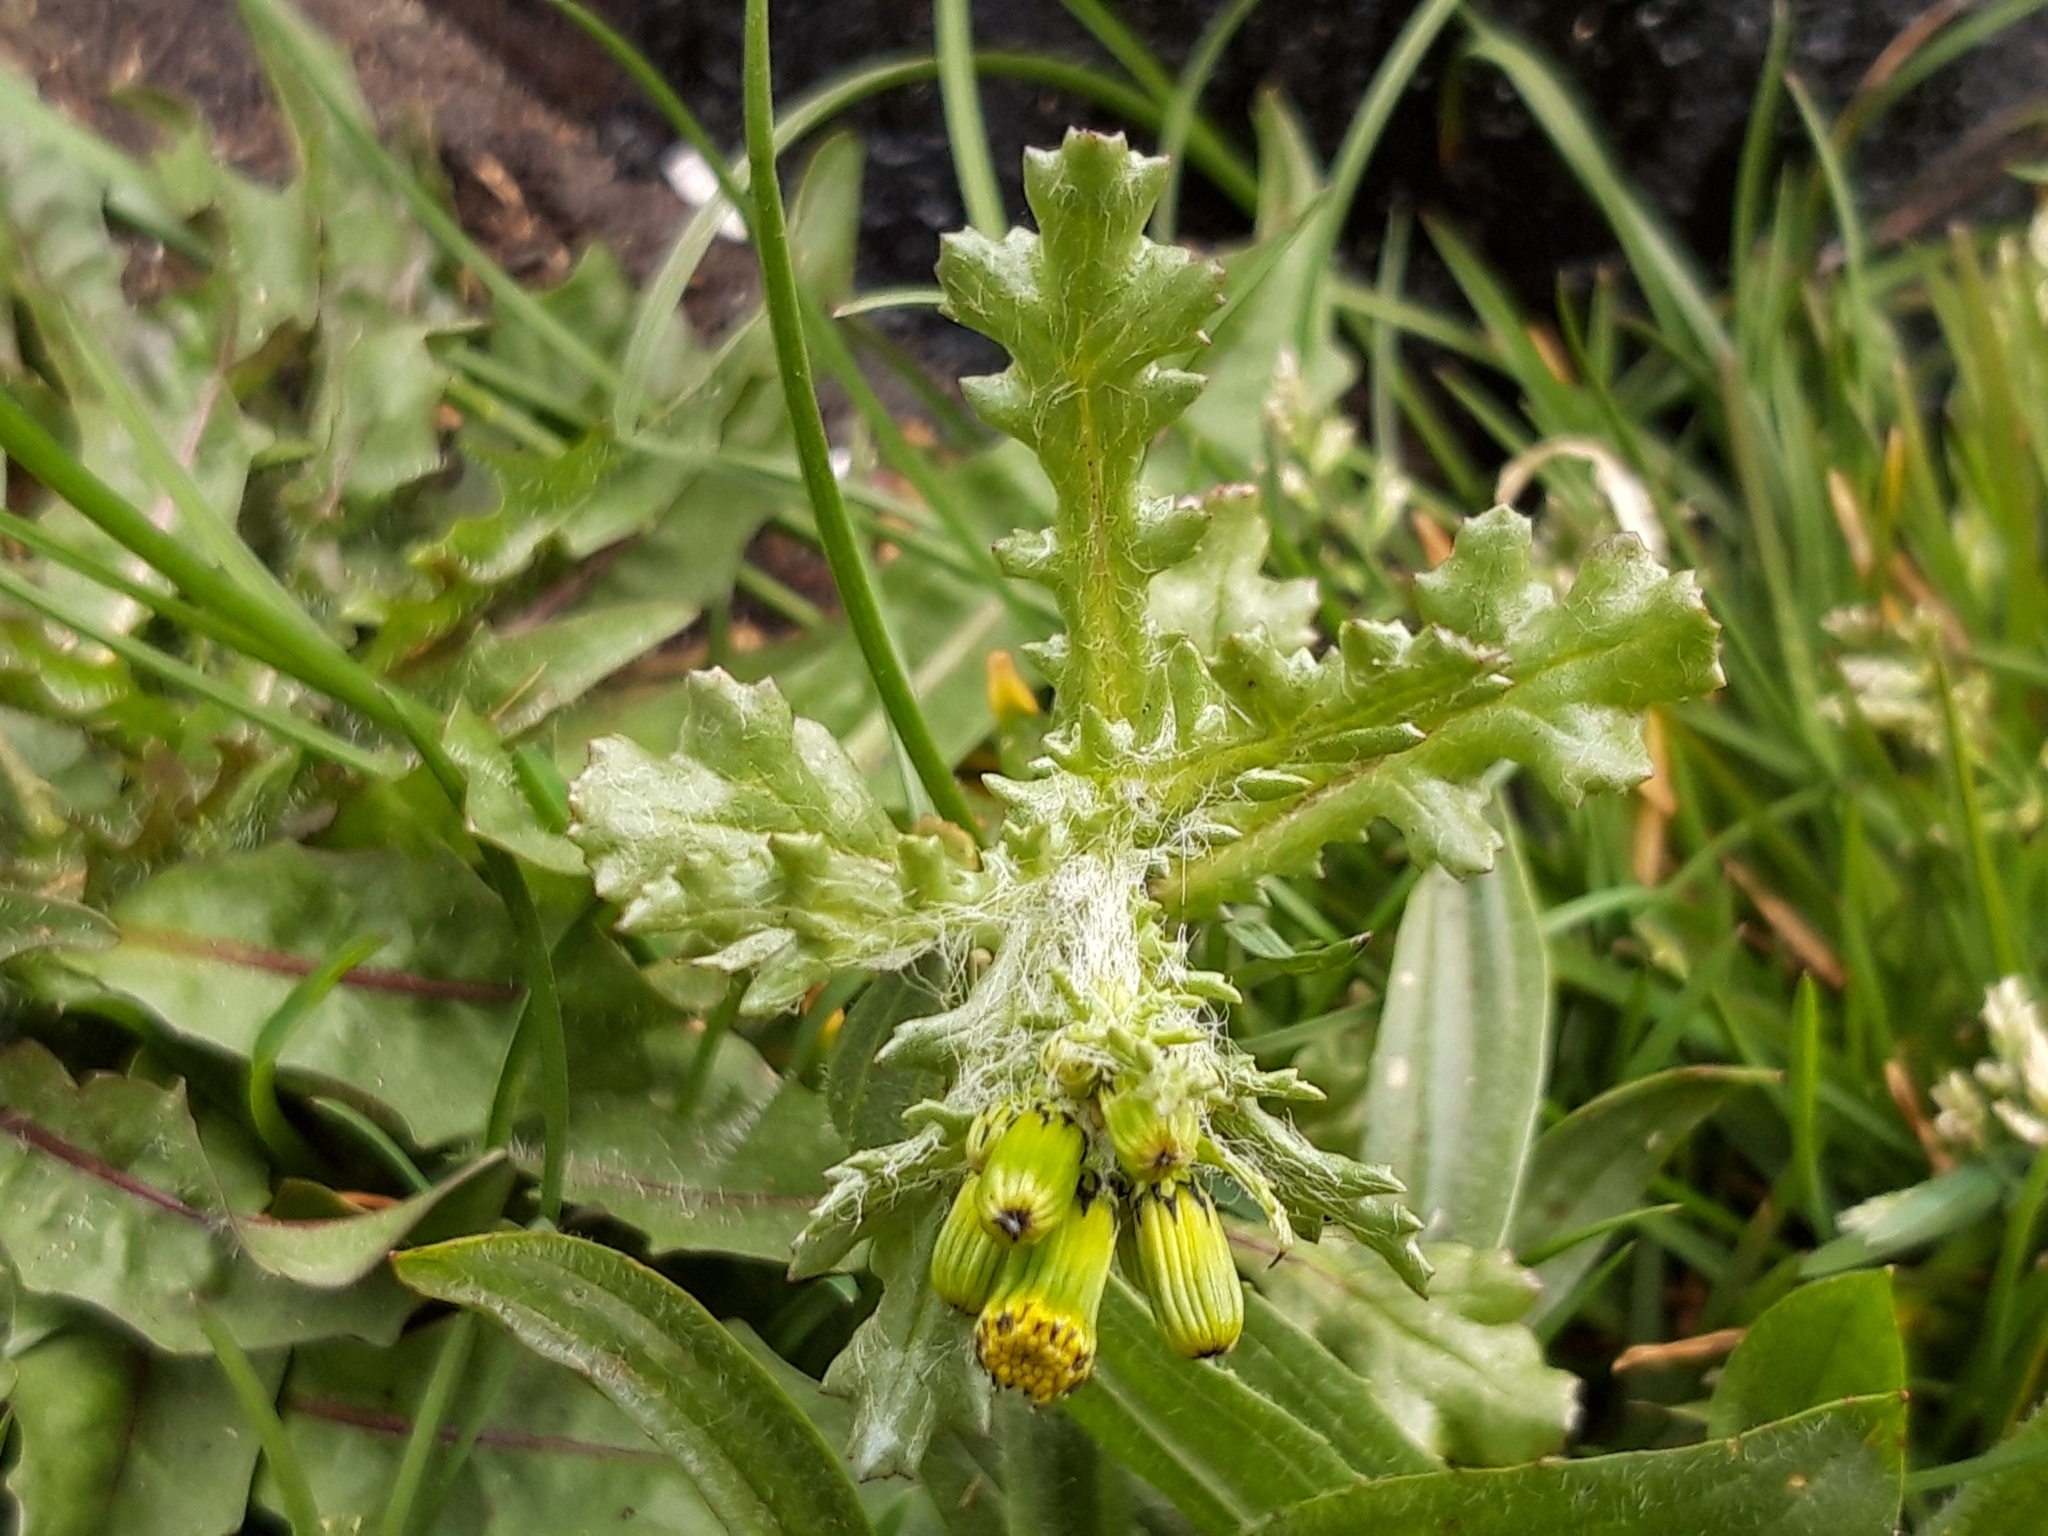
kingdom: Plantae
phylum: Tracheophyta
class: Magnoliopsida
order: Asterales
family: Asteraceae
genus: Senecio
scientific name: Senecio vulgaris
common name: Old-man-in-the-spring
